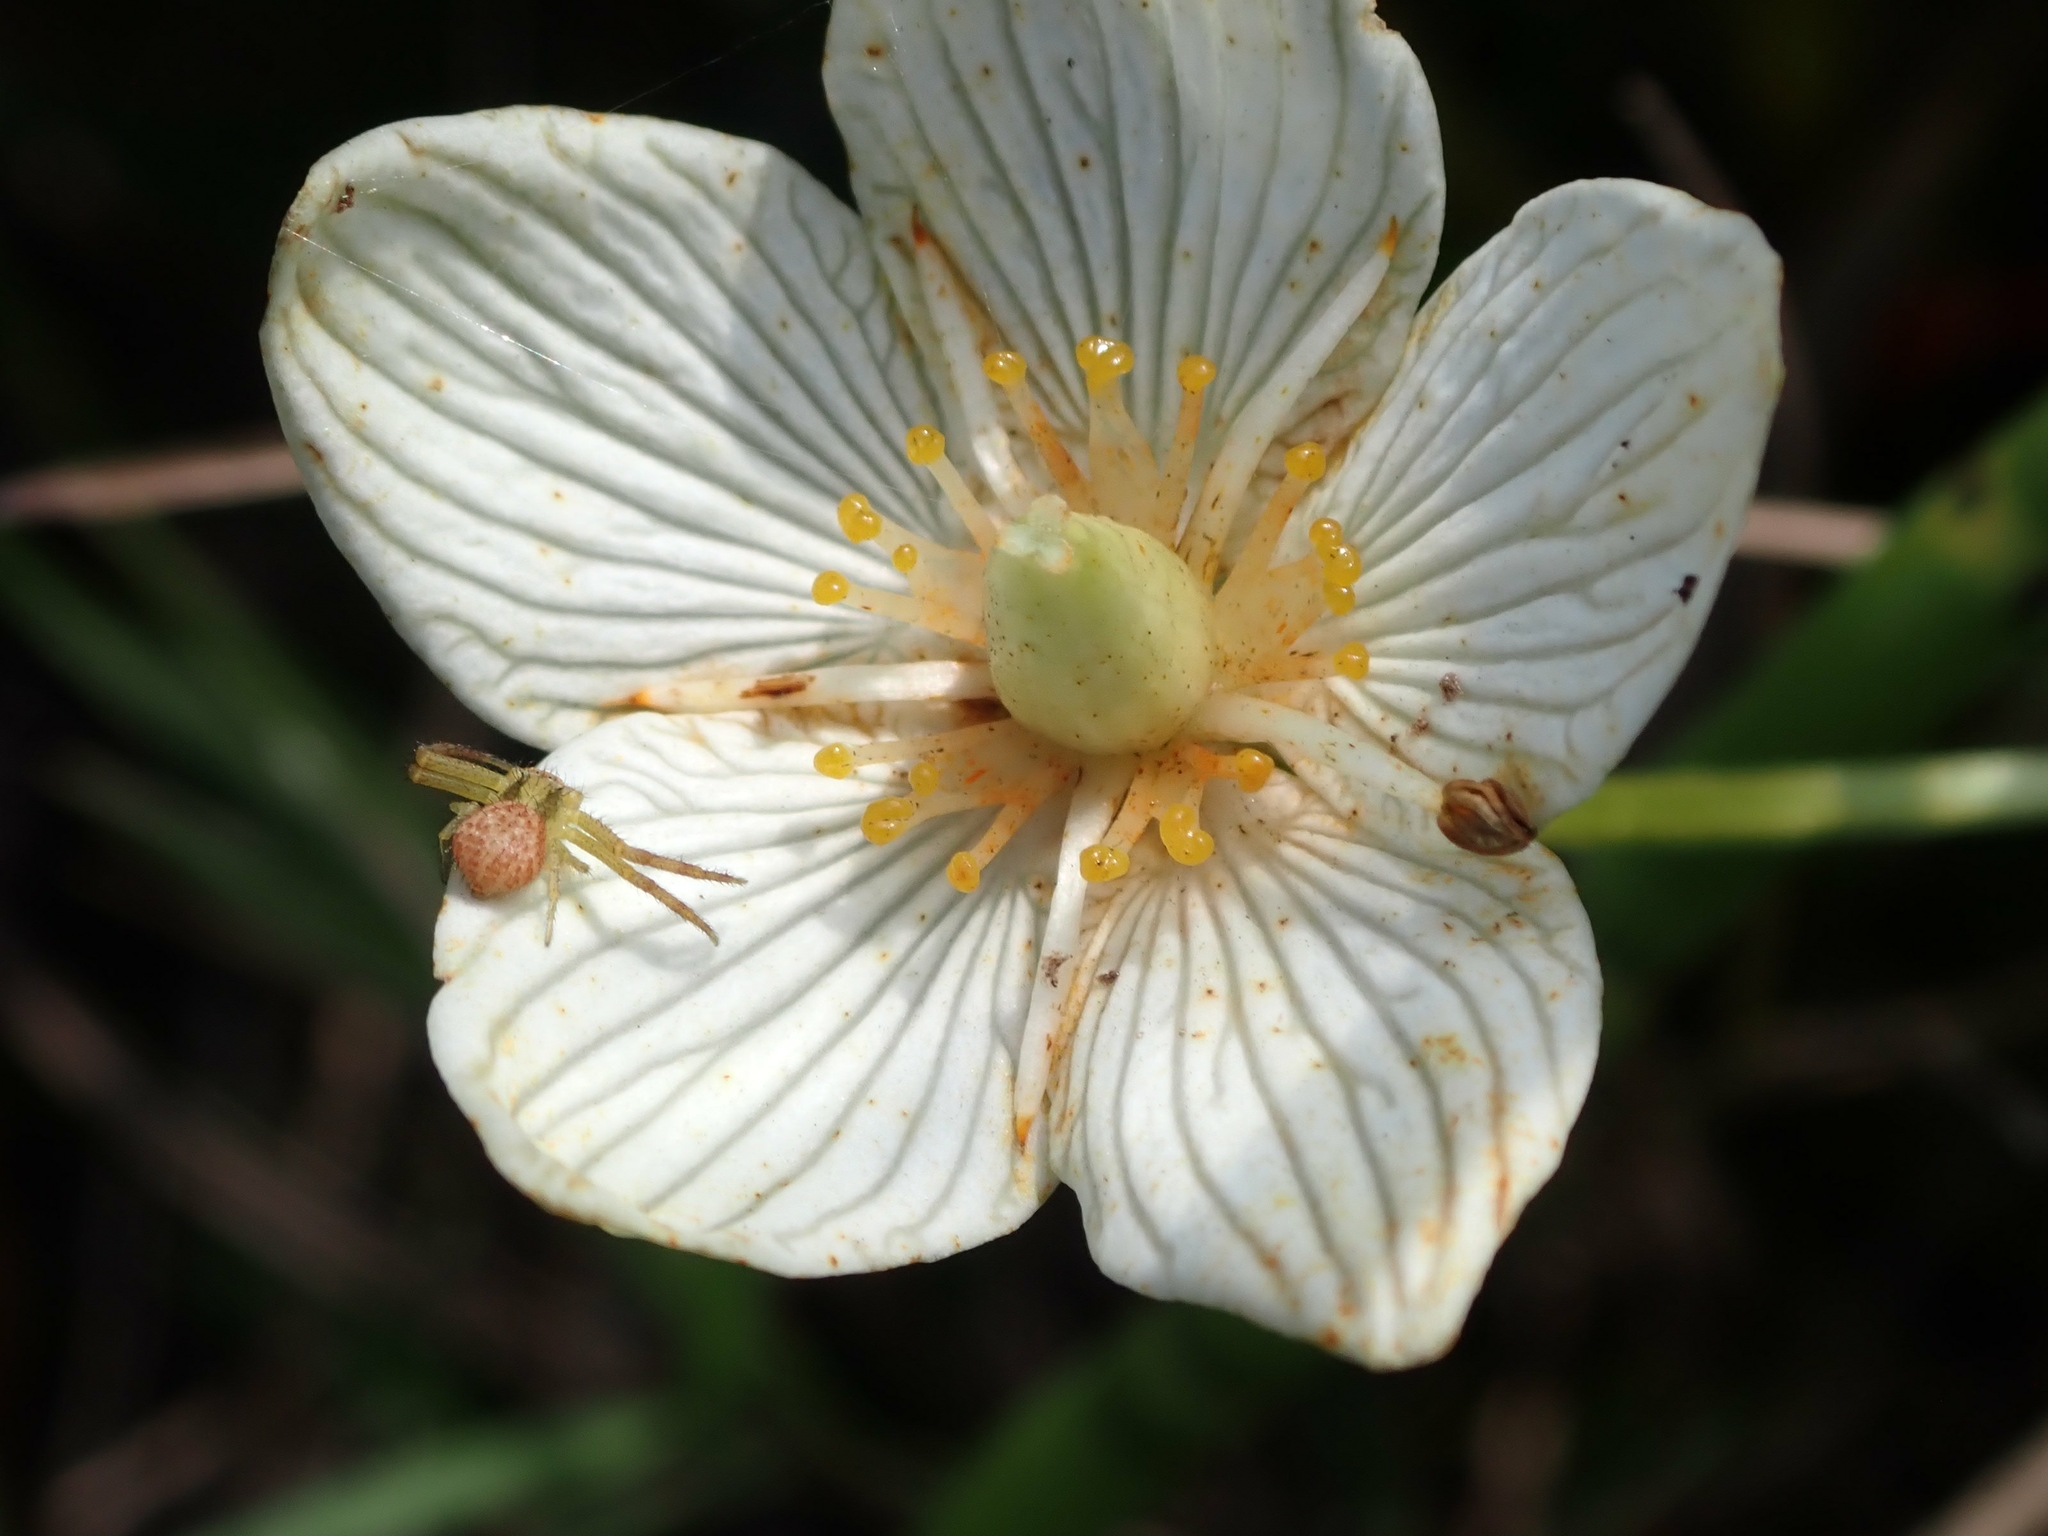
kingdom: Plantae
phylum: Tracheophyta
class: Magnoliopsida
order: Celastrales
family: Parnassiaceae
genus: Parnassia
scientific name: Parnassia glauca
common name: American grass-of-parnassus
